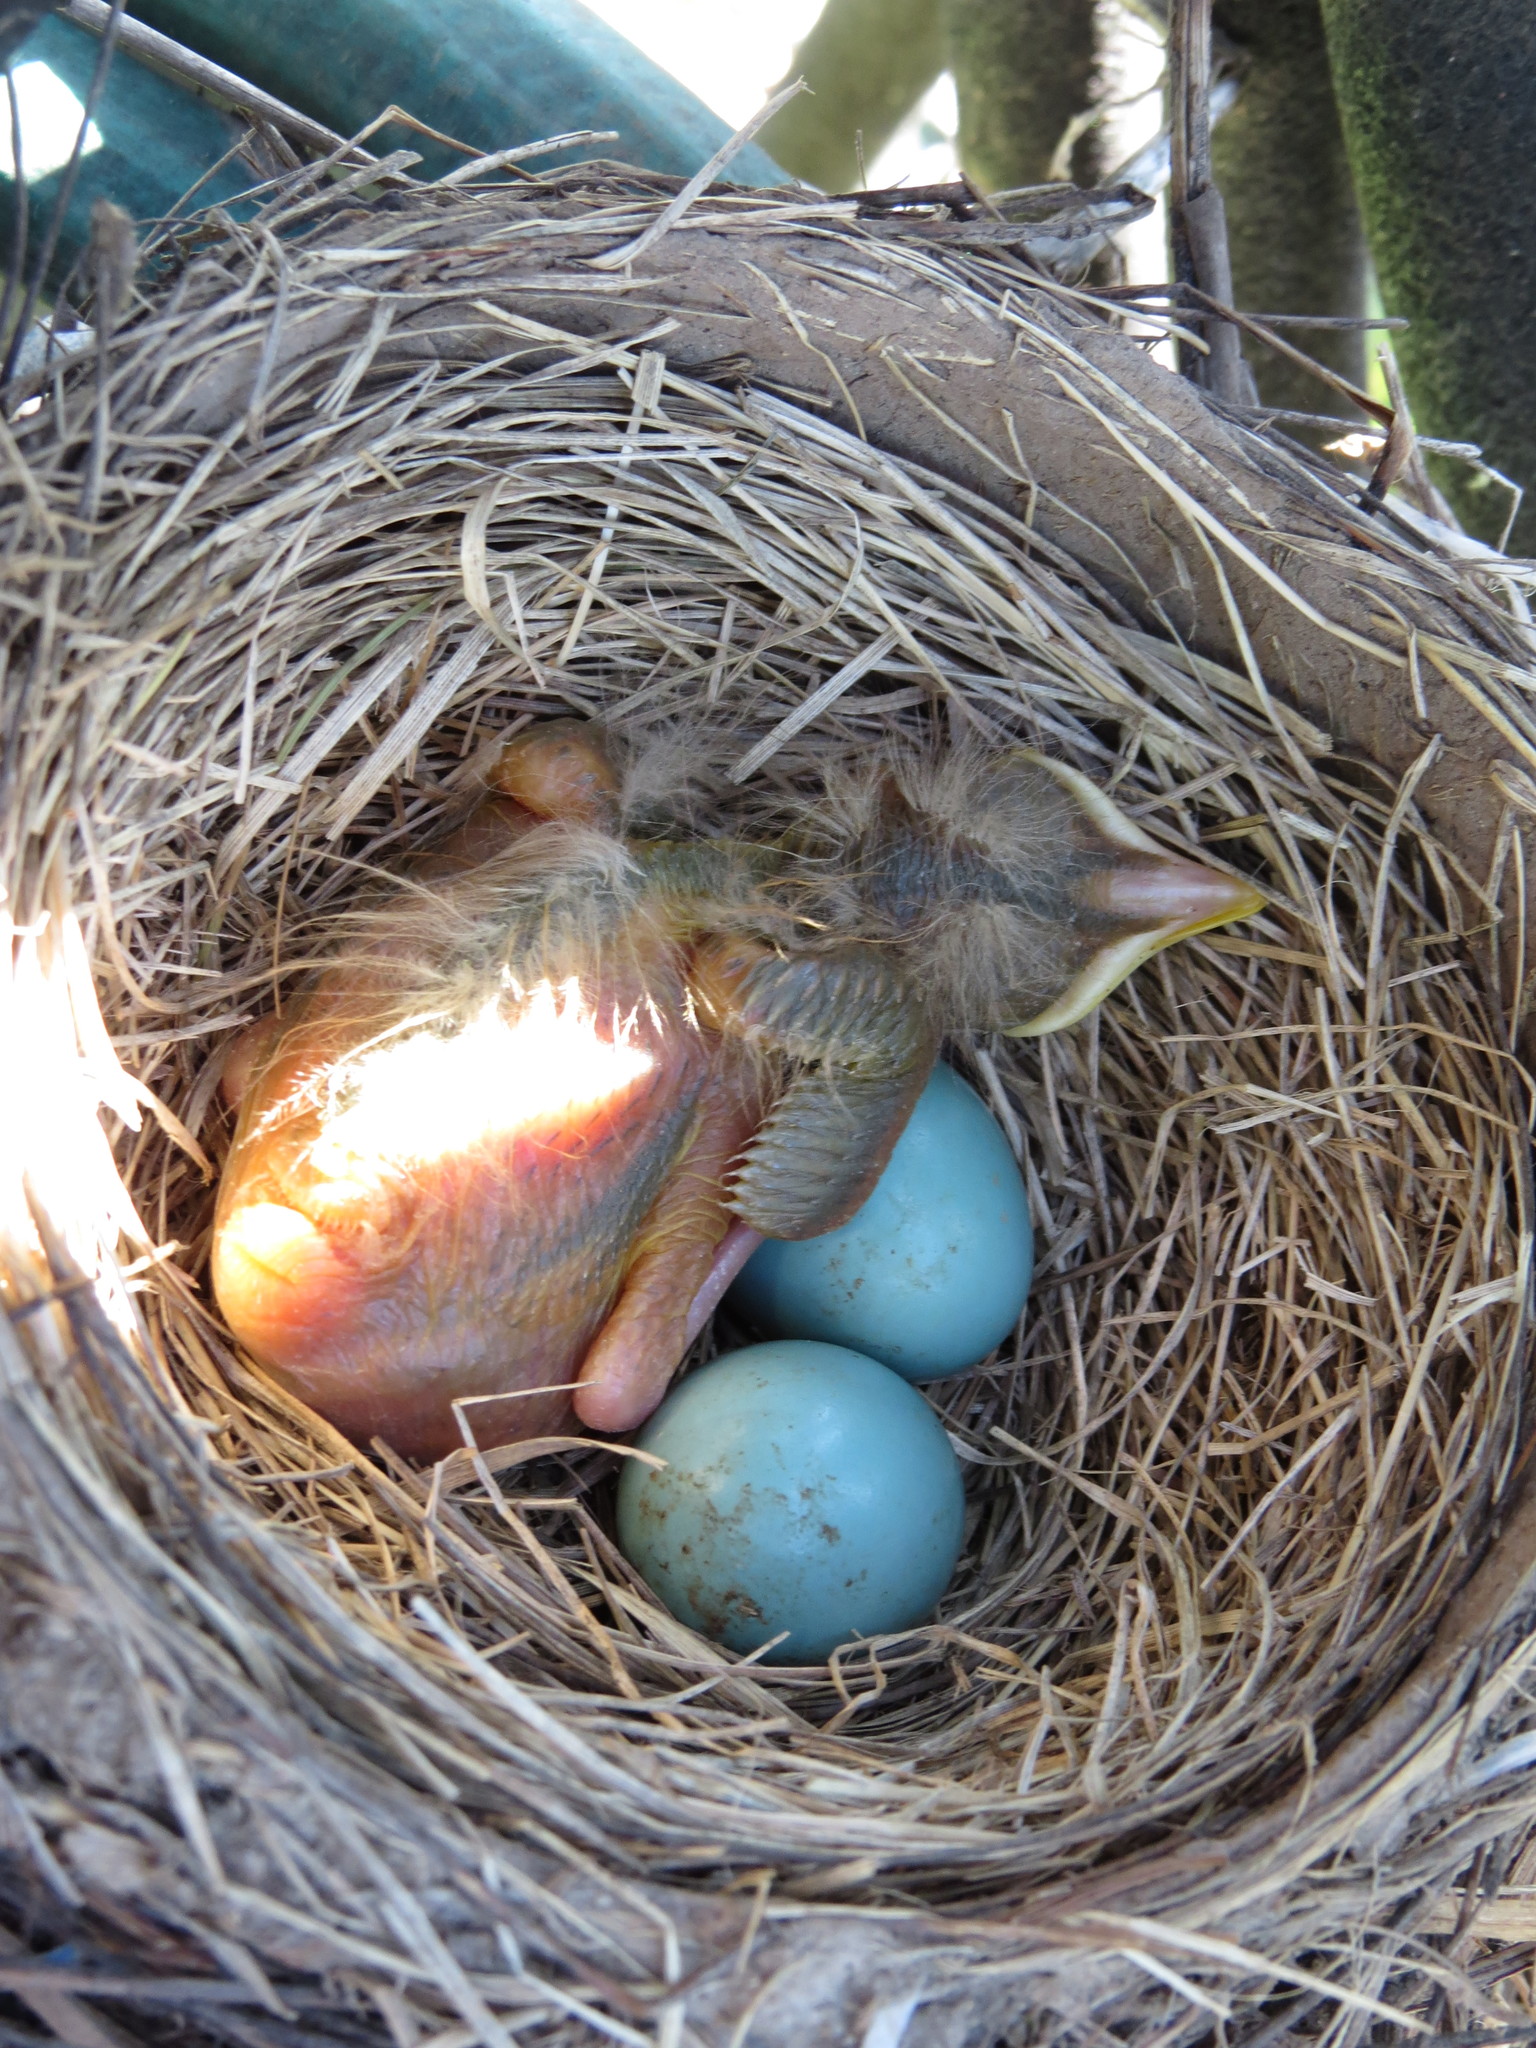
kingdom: Animalia
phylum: Chordata
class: Aves
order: Passeriformes
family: Turdidae
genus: Turdus
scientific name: Turdus migratorius
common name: American robin
